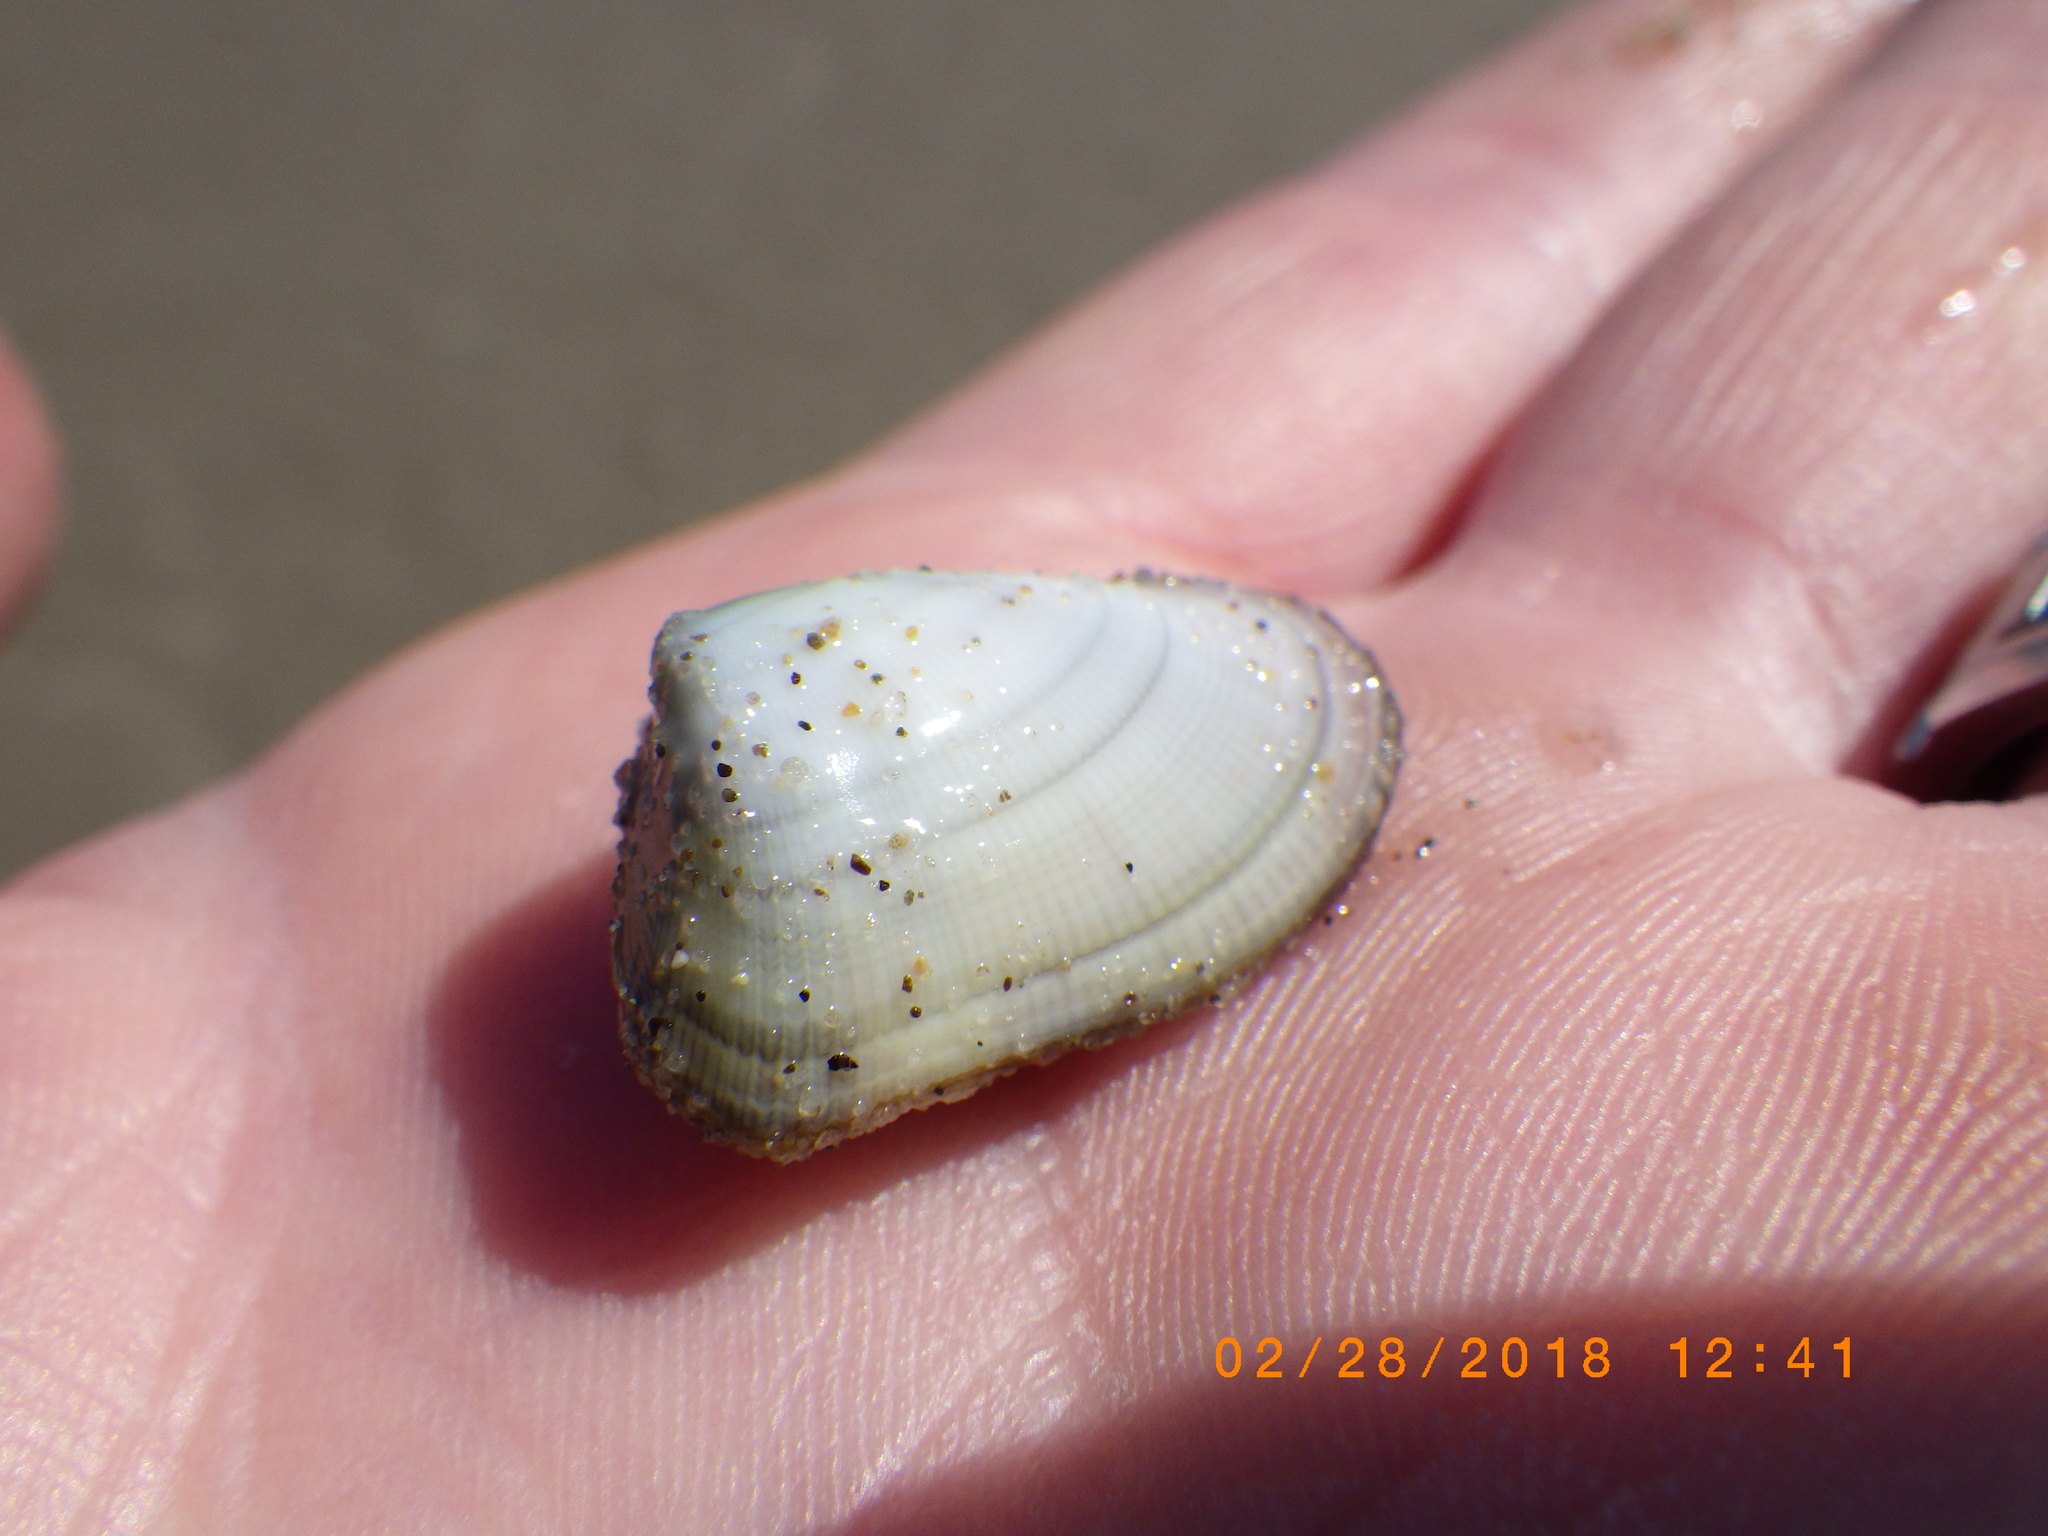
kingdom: Animalia
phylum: Mollusca
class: Bivalvia
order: Cardiida
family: Donacidae
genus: Donax
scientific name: Donax gouldii
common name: Gould beanclam
